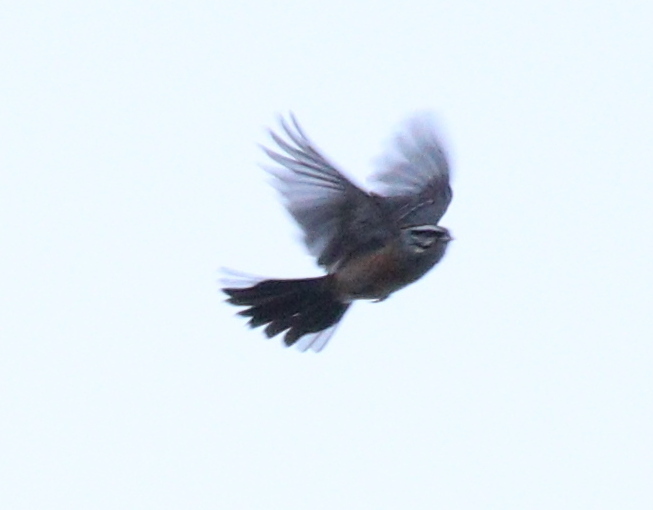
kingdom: Animalia
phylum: Chordata
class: Aves
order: Passeriformes
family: Emberizidae
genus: Emberiza
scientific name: Emberiza cia
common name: Rock bunting
